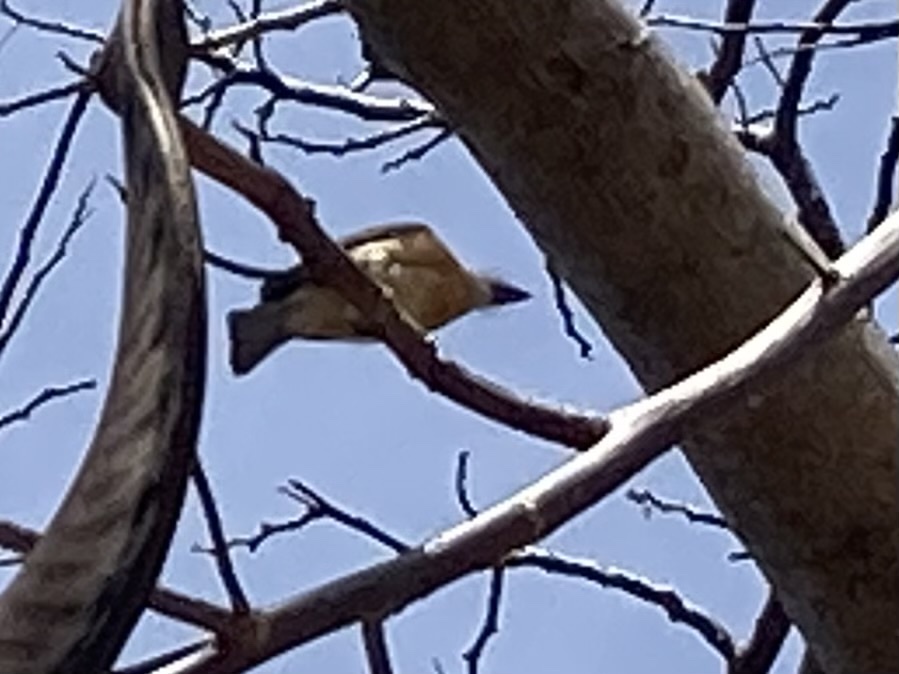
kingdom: Animalia
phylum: Chordata
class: Aves
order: Passeriformes
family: Monarchidae
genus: Myiagra
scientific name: Myiagra vanikorensis
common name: Vanikoro flycatcher
